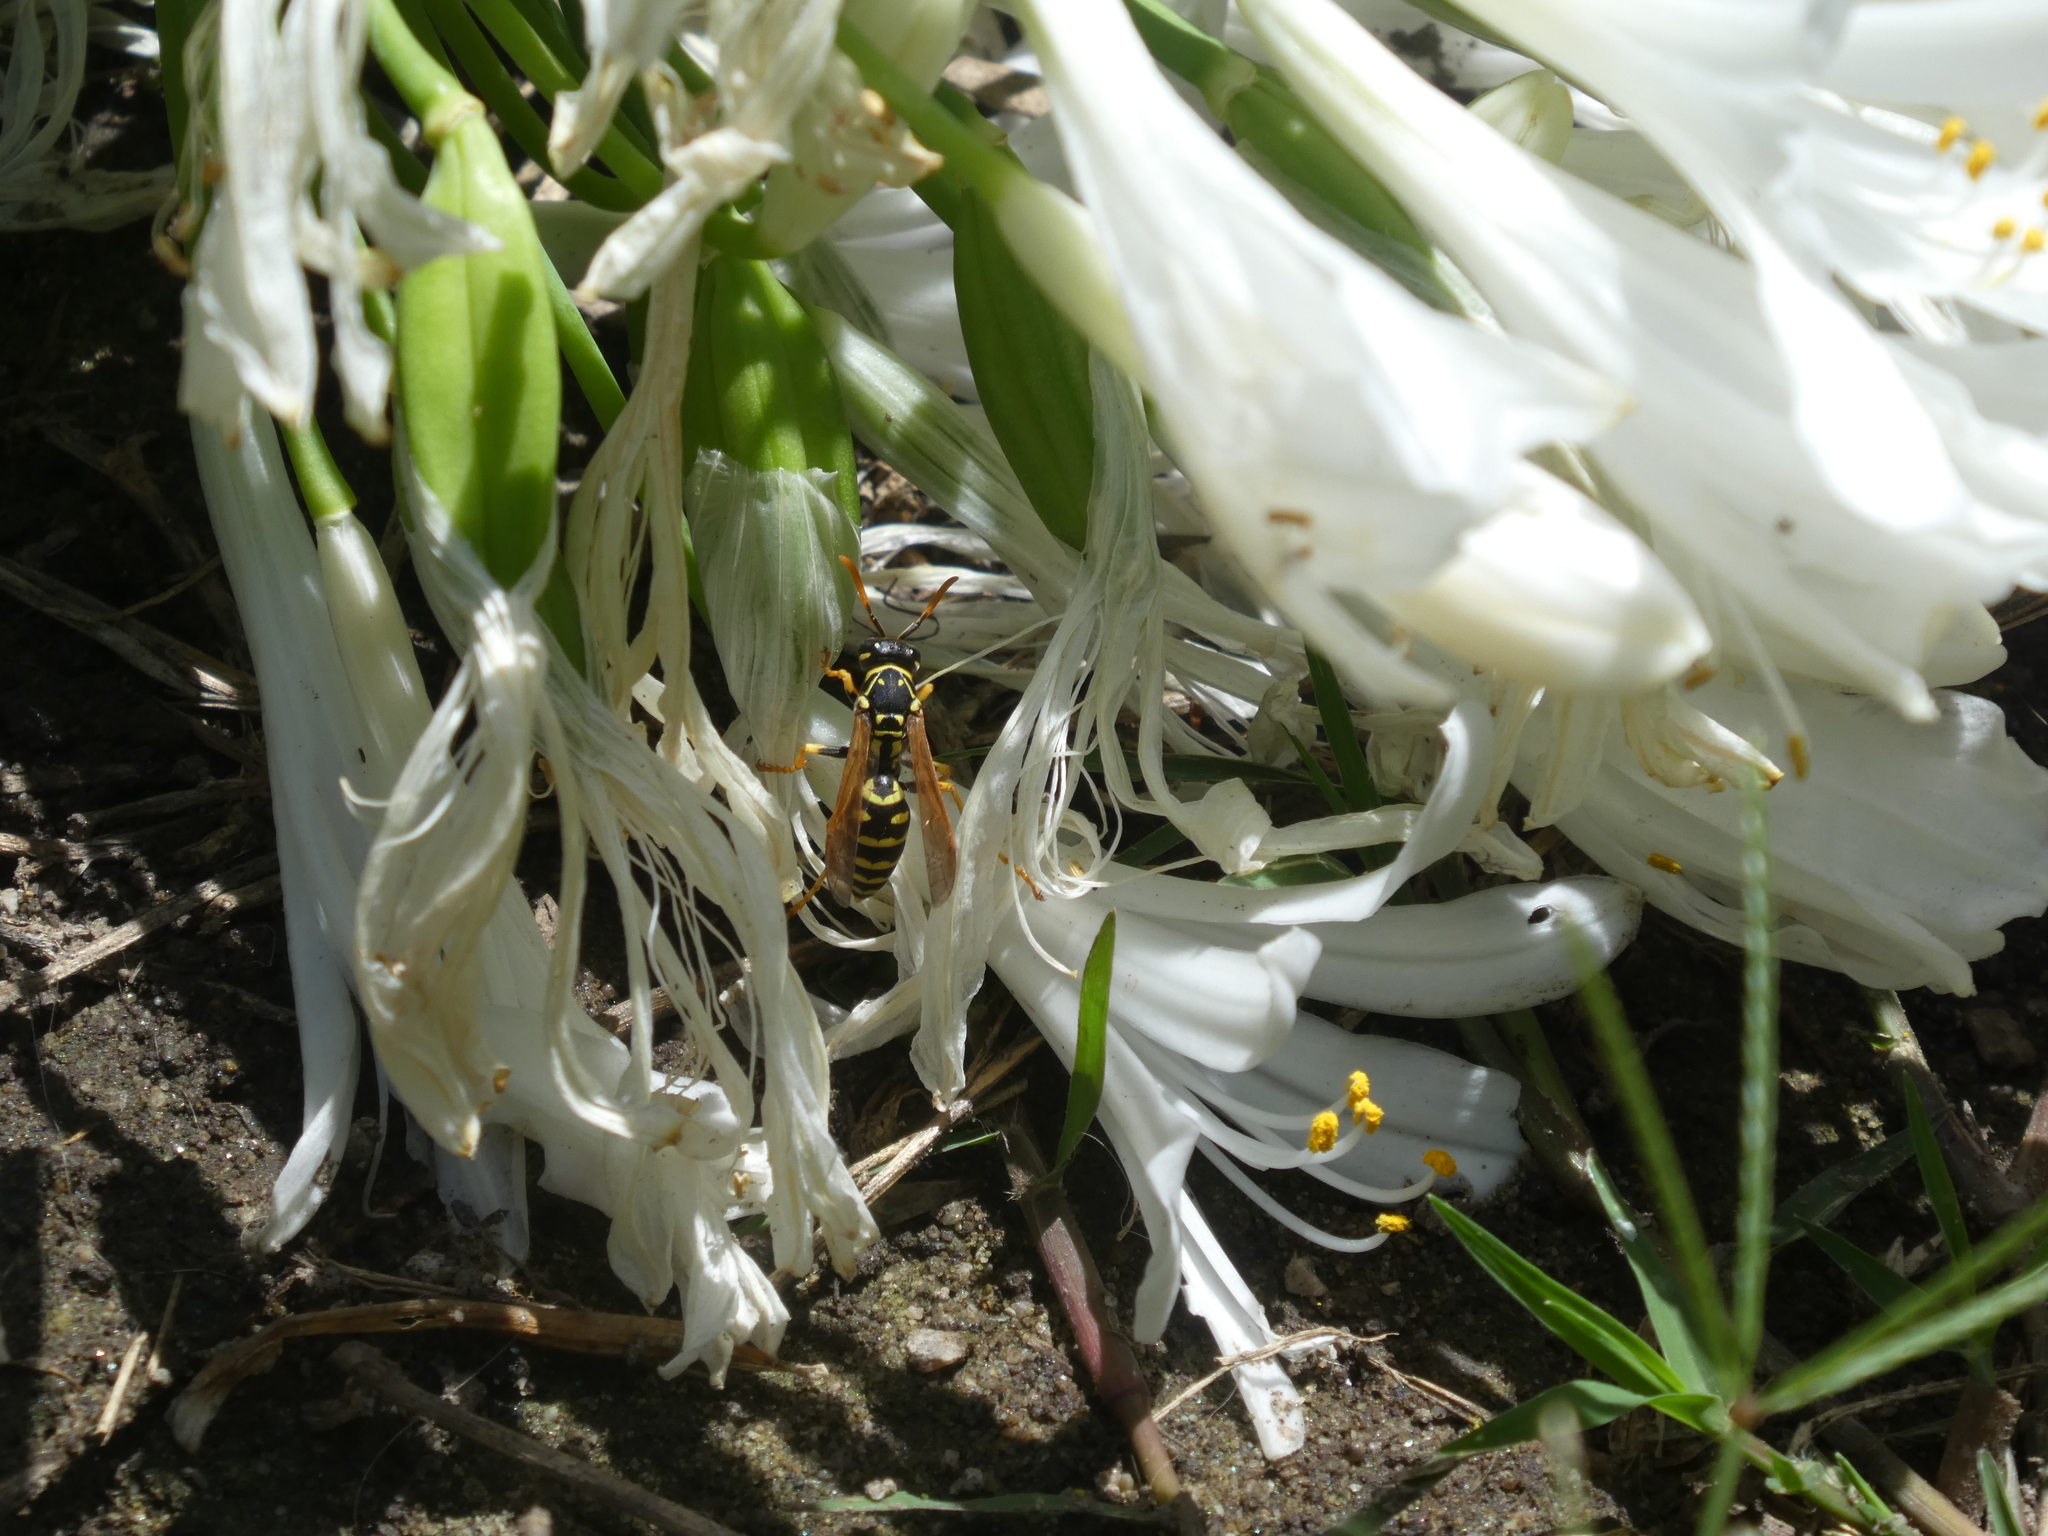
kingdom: Animalia
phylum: Arthropoda
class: Insecta
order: Hymenoptera
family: Eumenidae
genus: Polistes
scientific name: Polistes dominula
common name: Paper wasp
